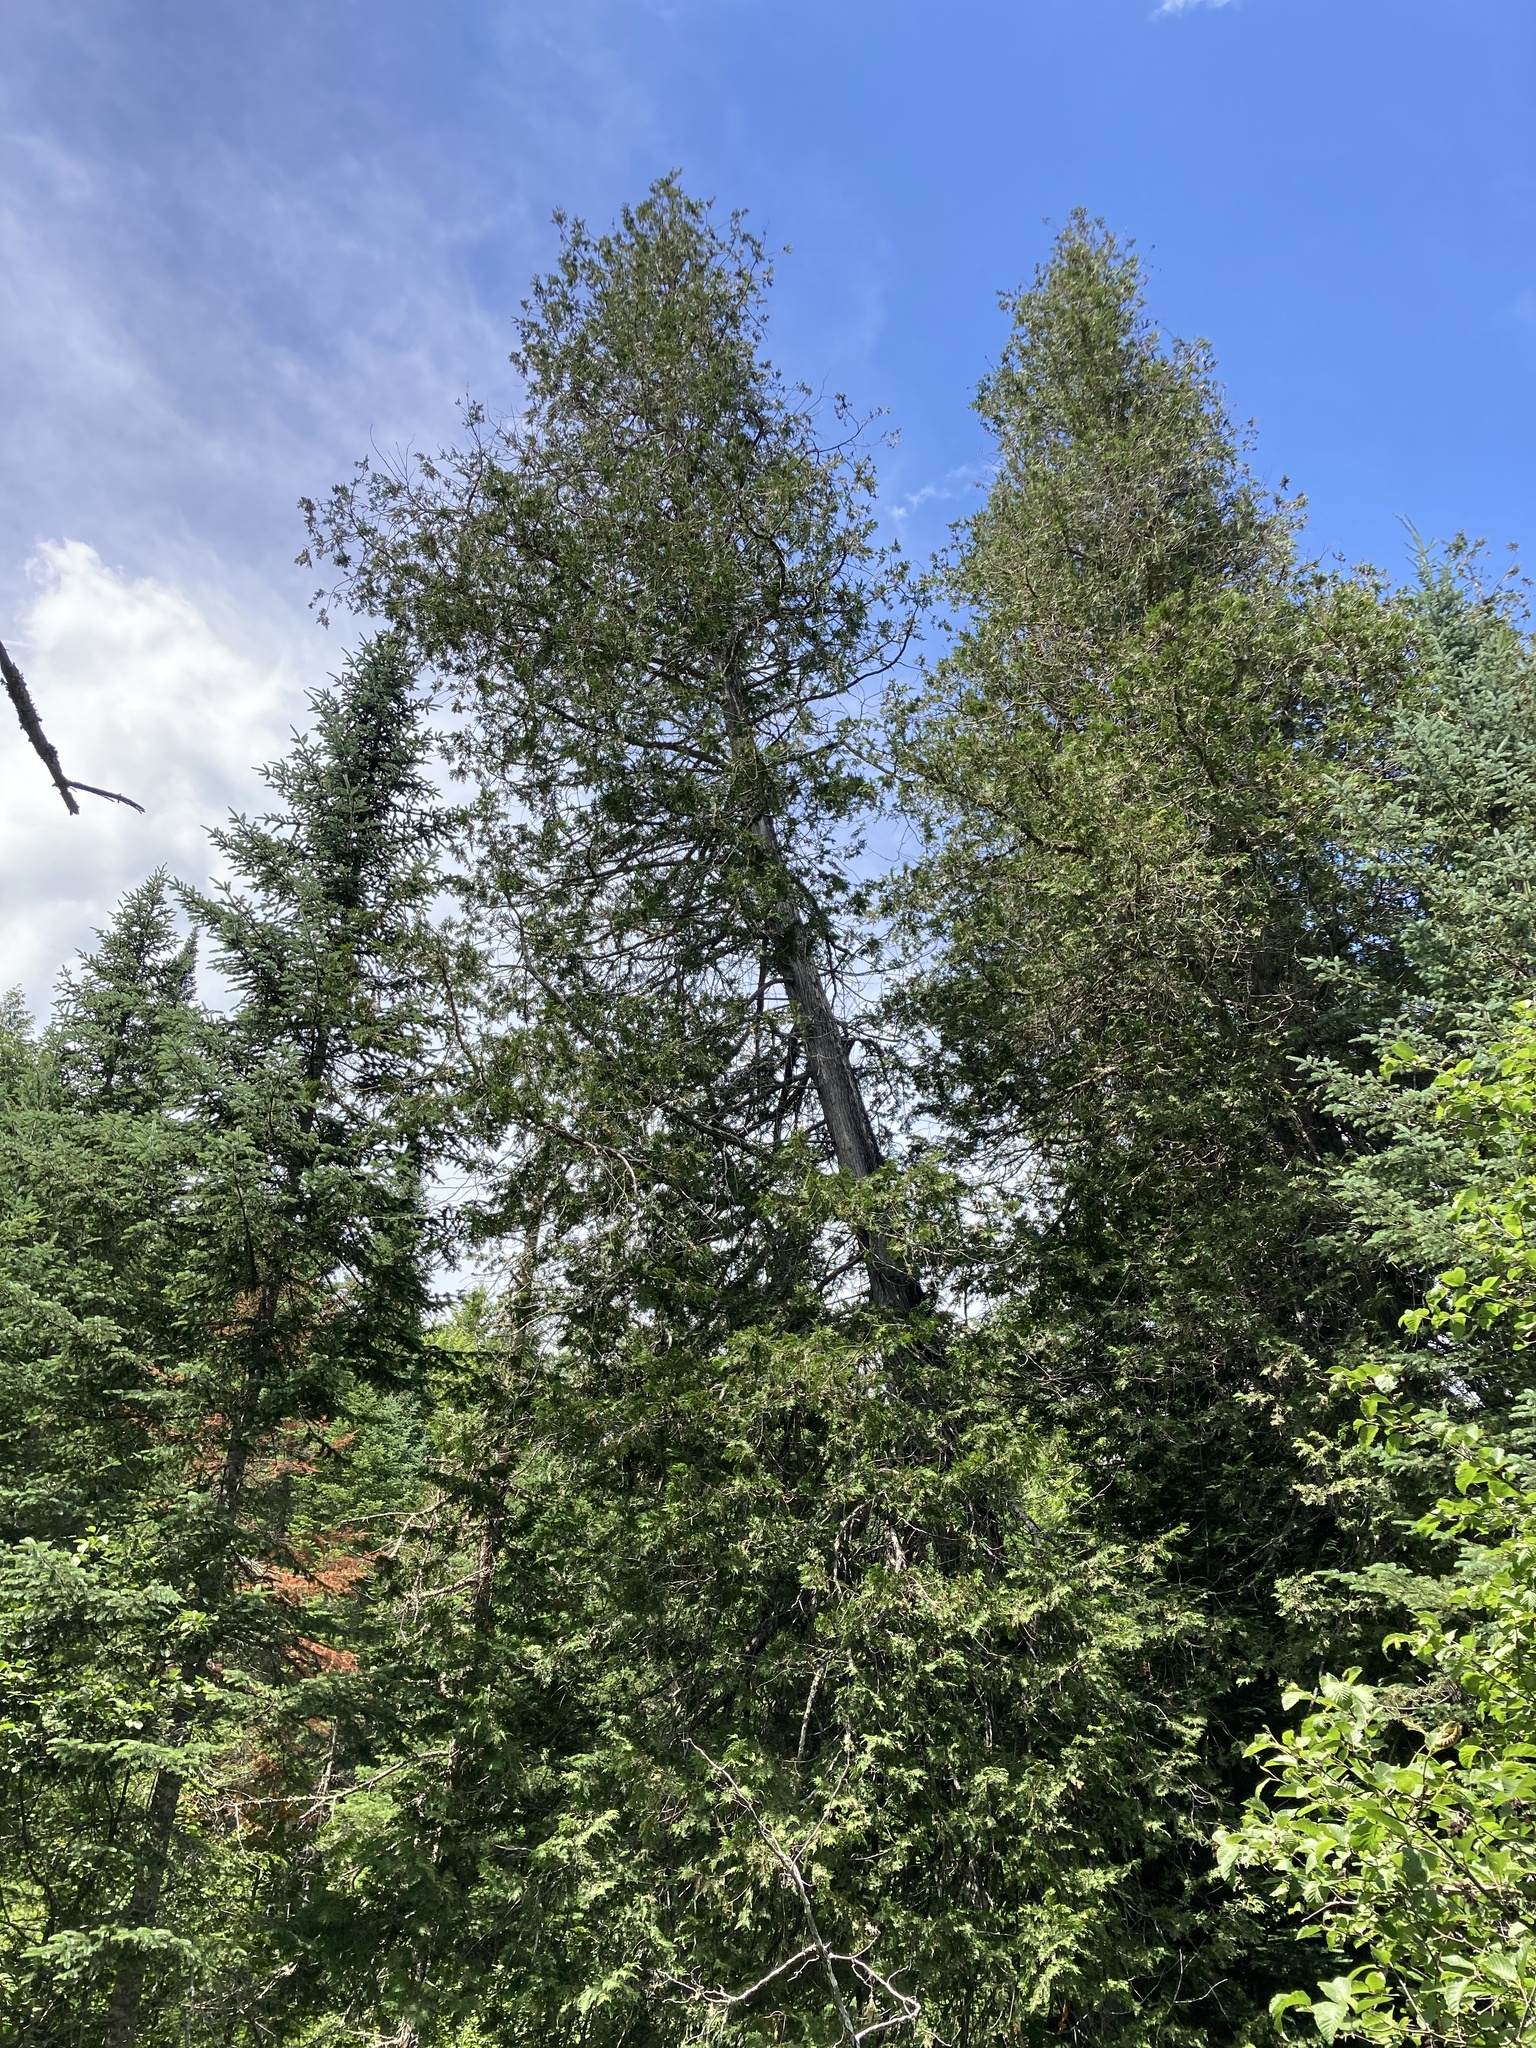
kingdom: Plantae
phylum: Tracheophyta
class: Pinopsida
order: Pinales
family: Cupressaceae
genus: Thuja
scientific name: Thuja occidentalis
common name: Northern white-cedar
